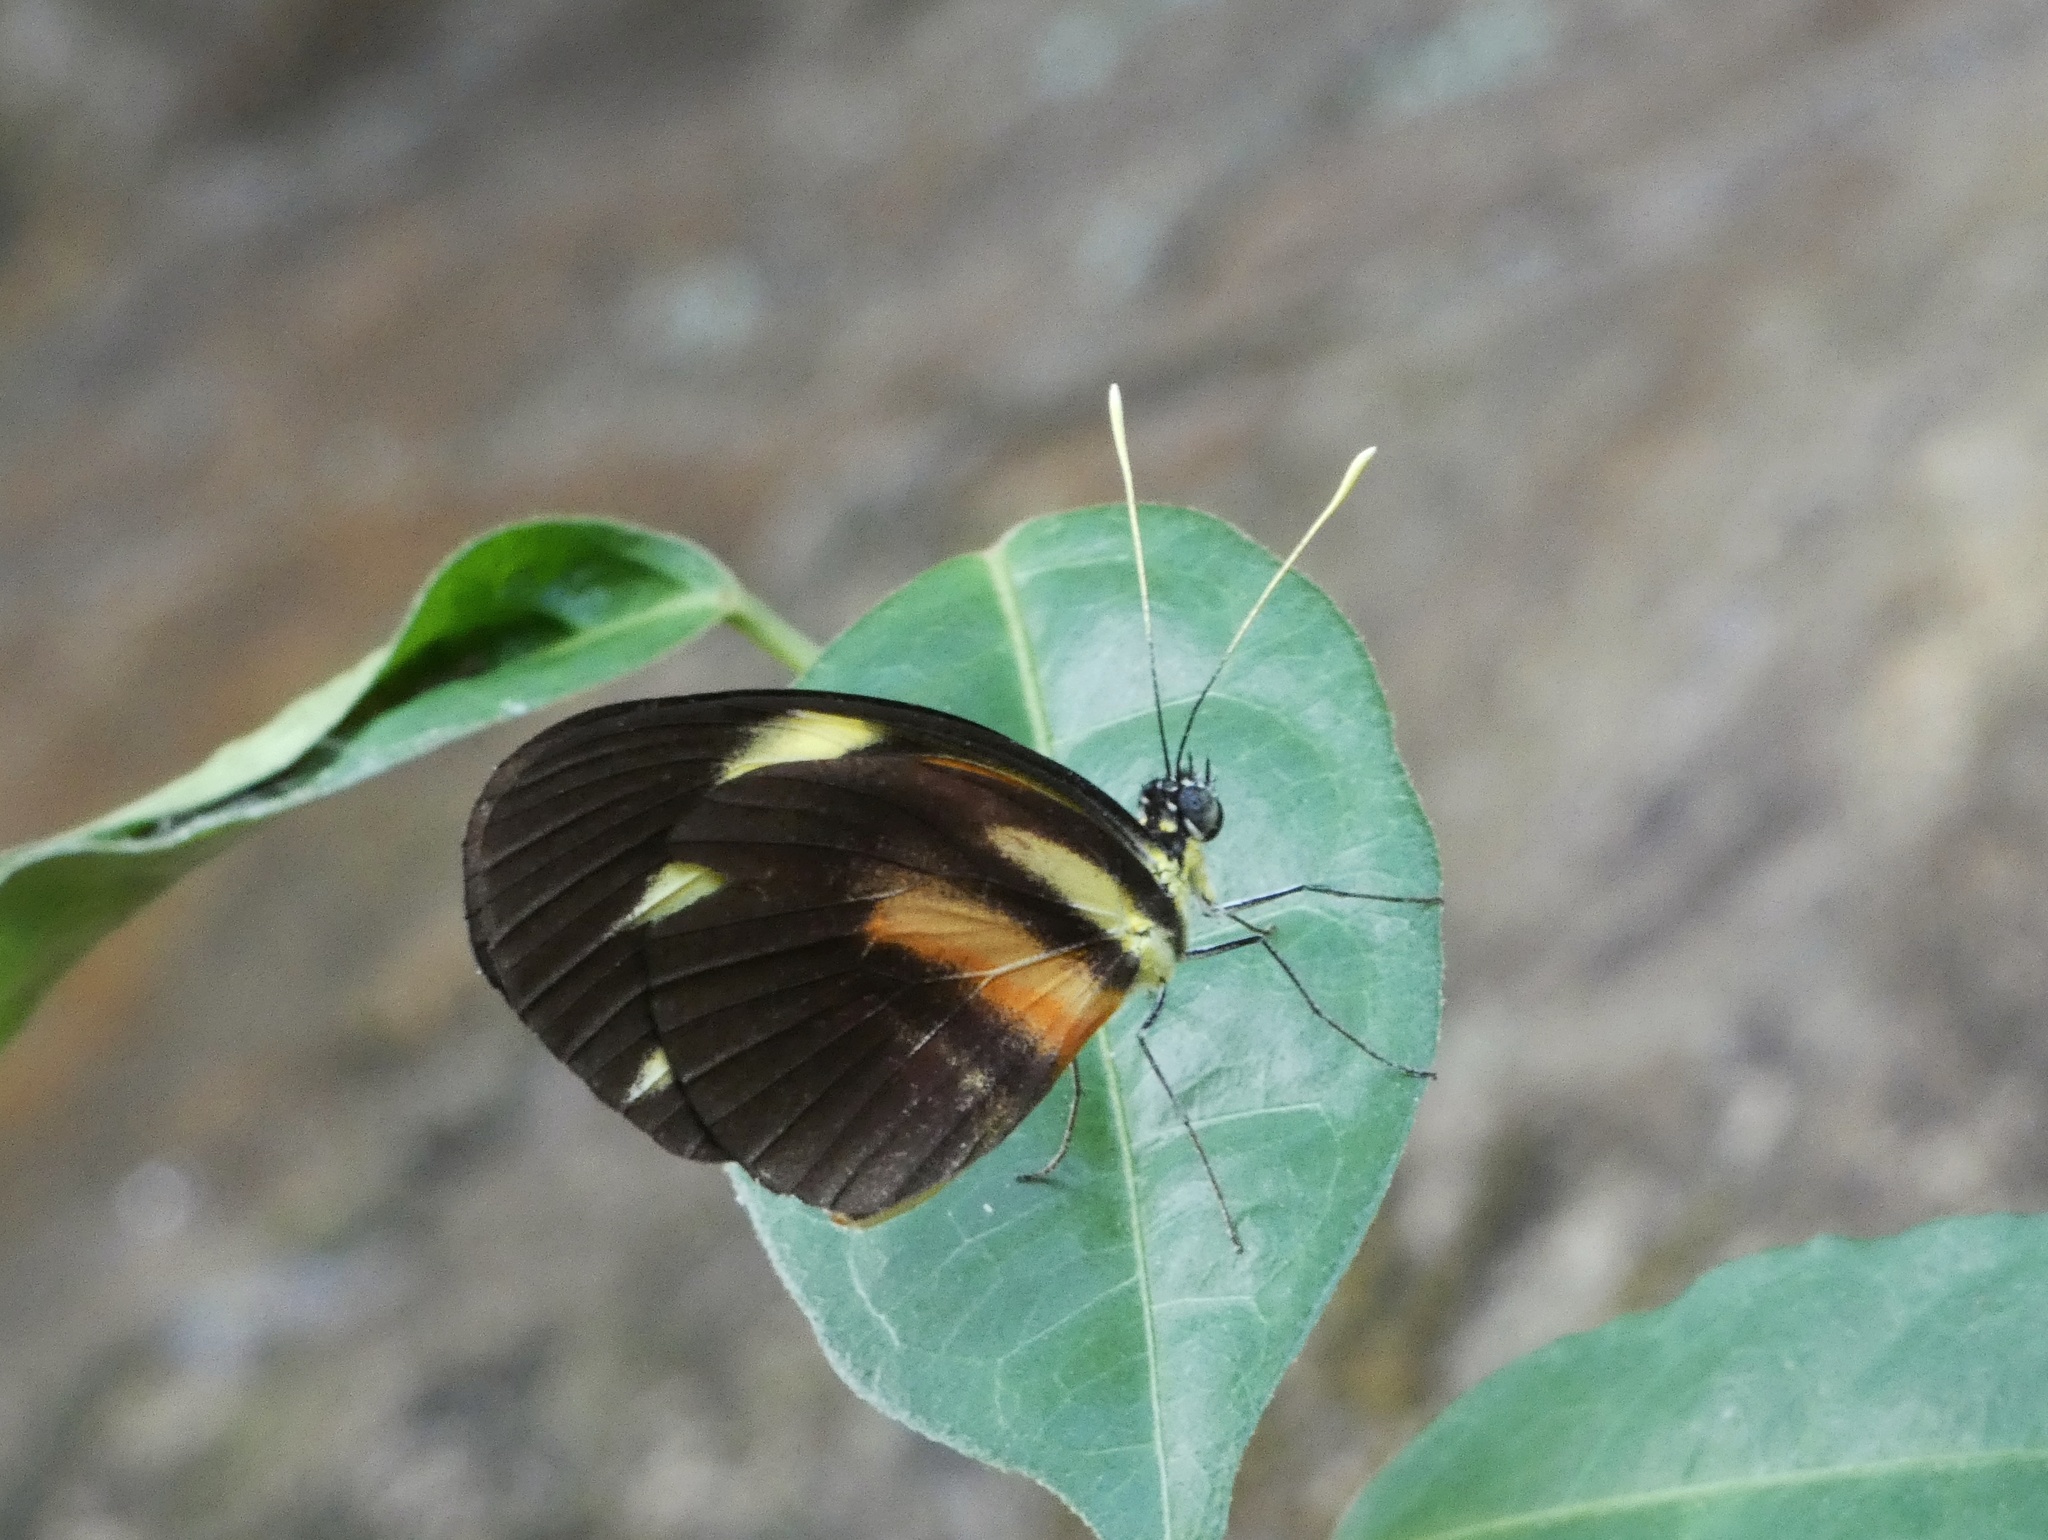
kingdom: Animalia
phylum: Arthropoda
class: Insecta
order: Lepidoptera
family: Pieridae
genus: Perrhybris
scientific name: Perrhybris pamela
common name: Chiapas white
